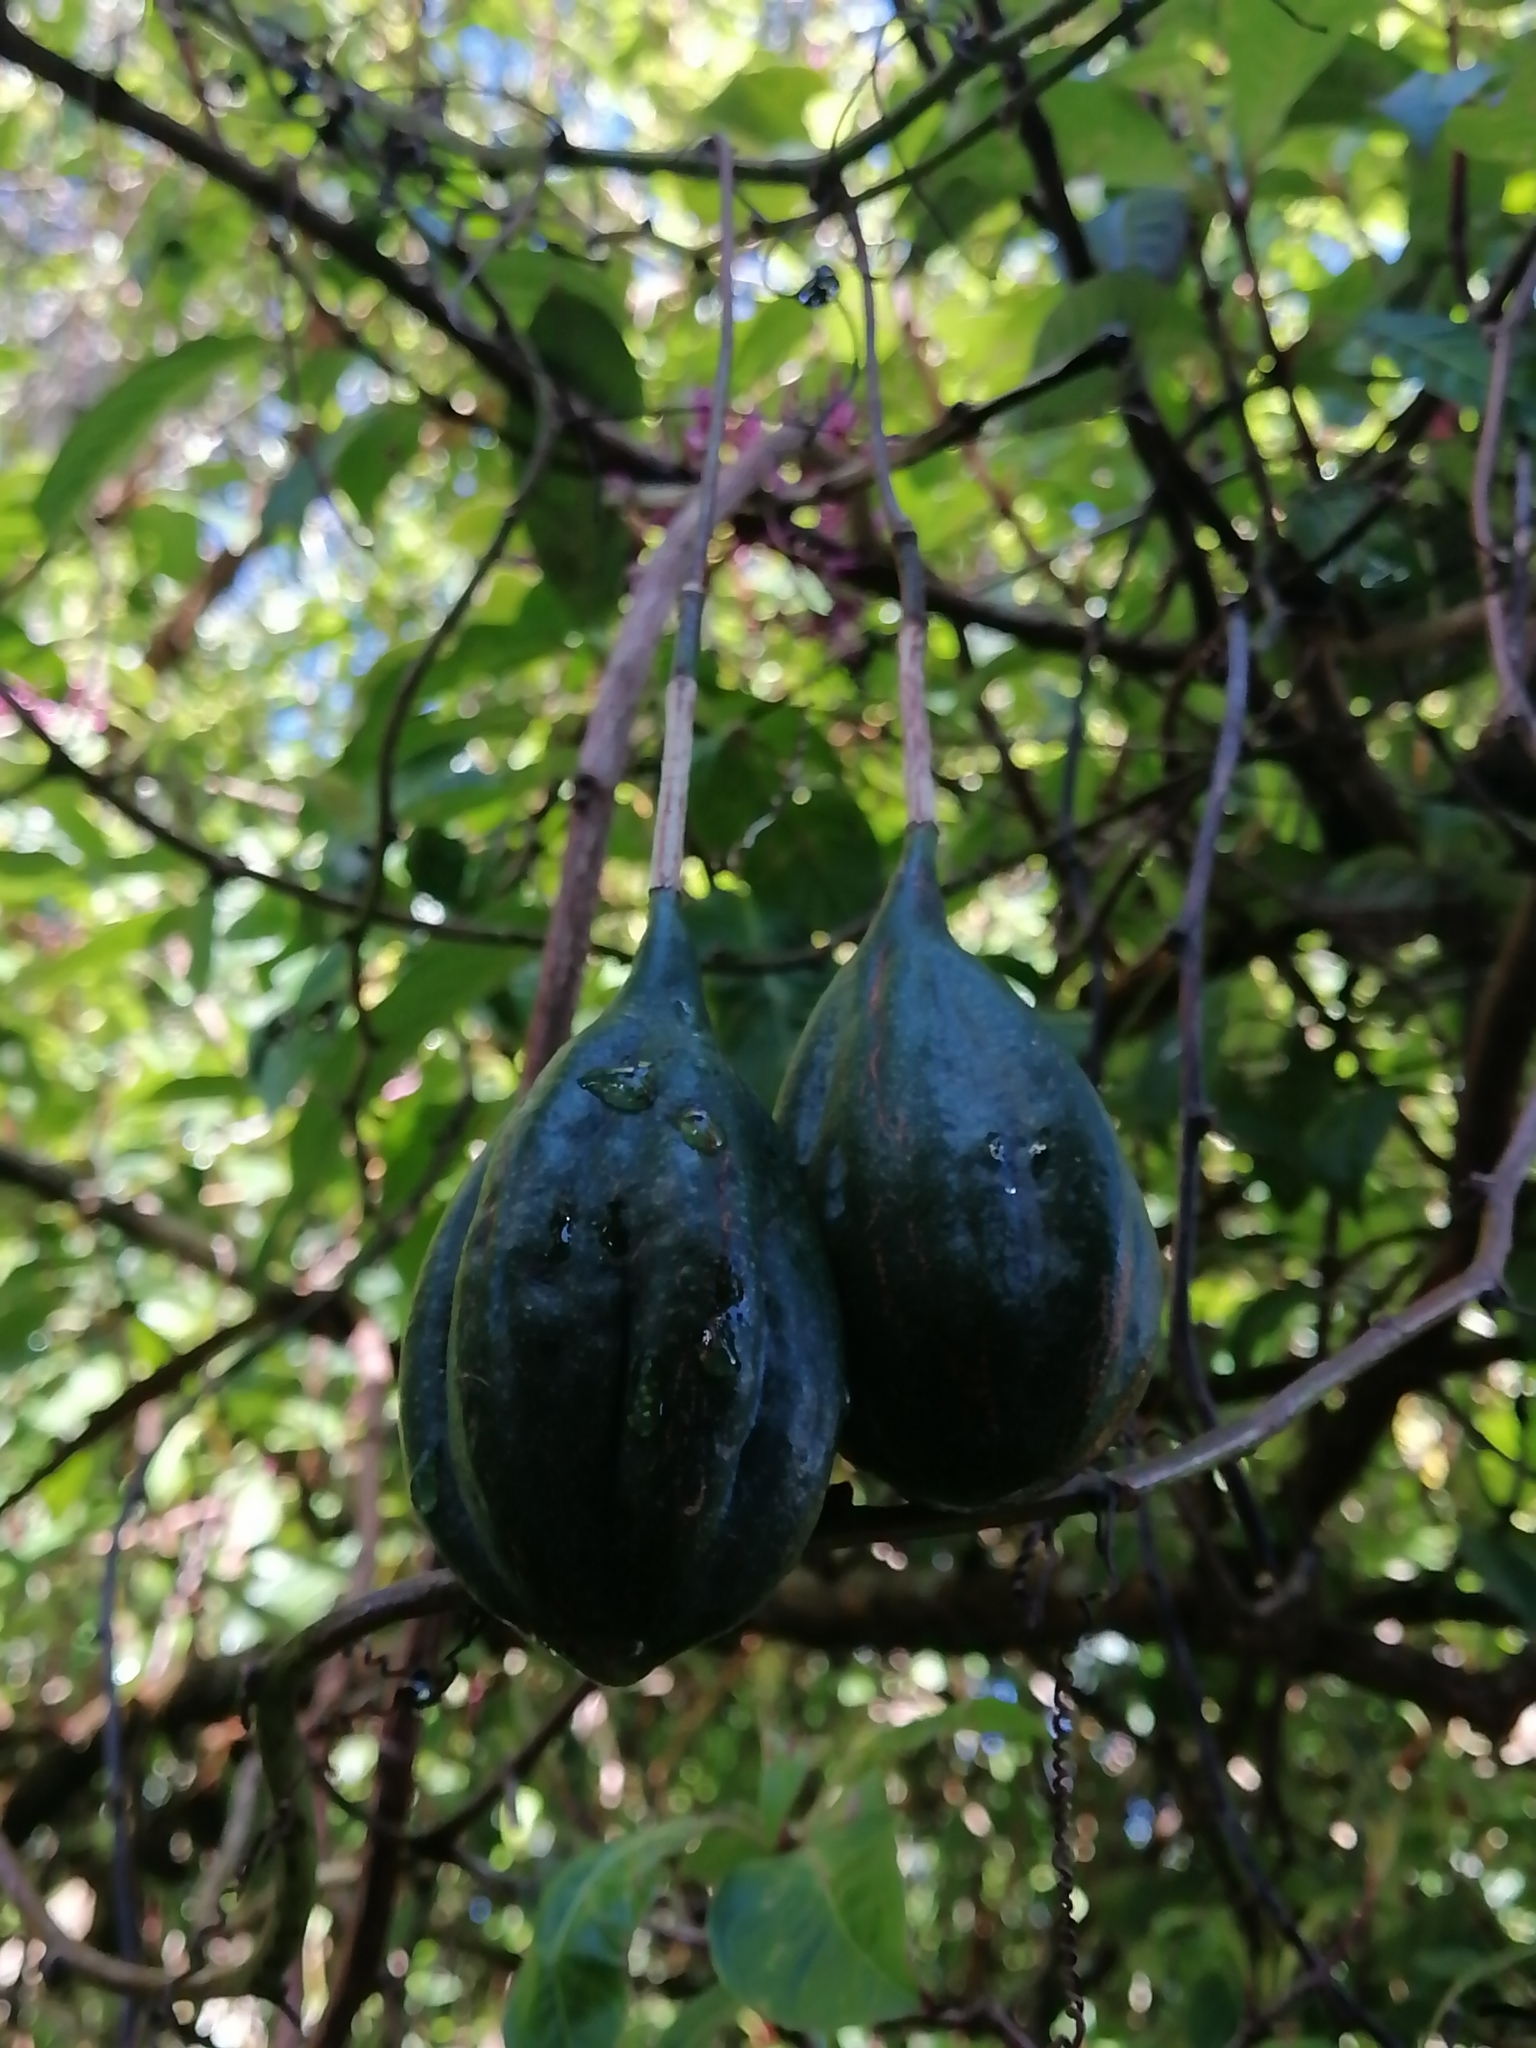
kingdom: Plantae
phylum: Tracheophyta
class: Magnoliopsida
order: Malpighiales
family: Passifloraceae
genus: Passiflora
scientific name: Passiflora membranacea
